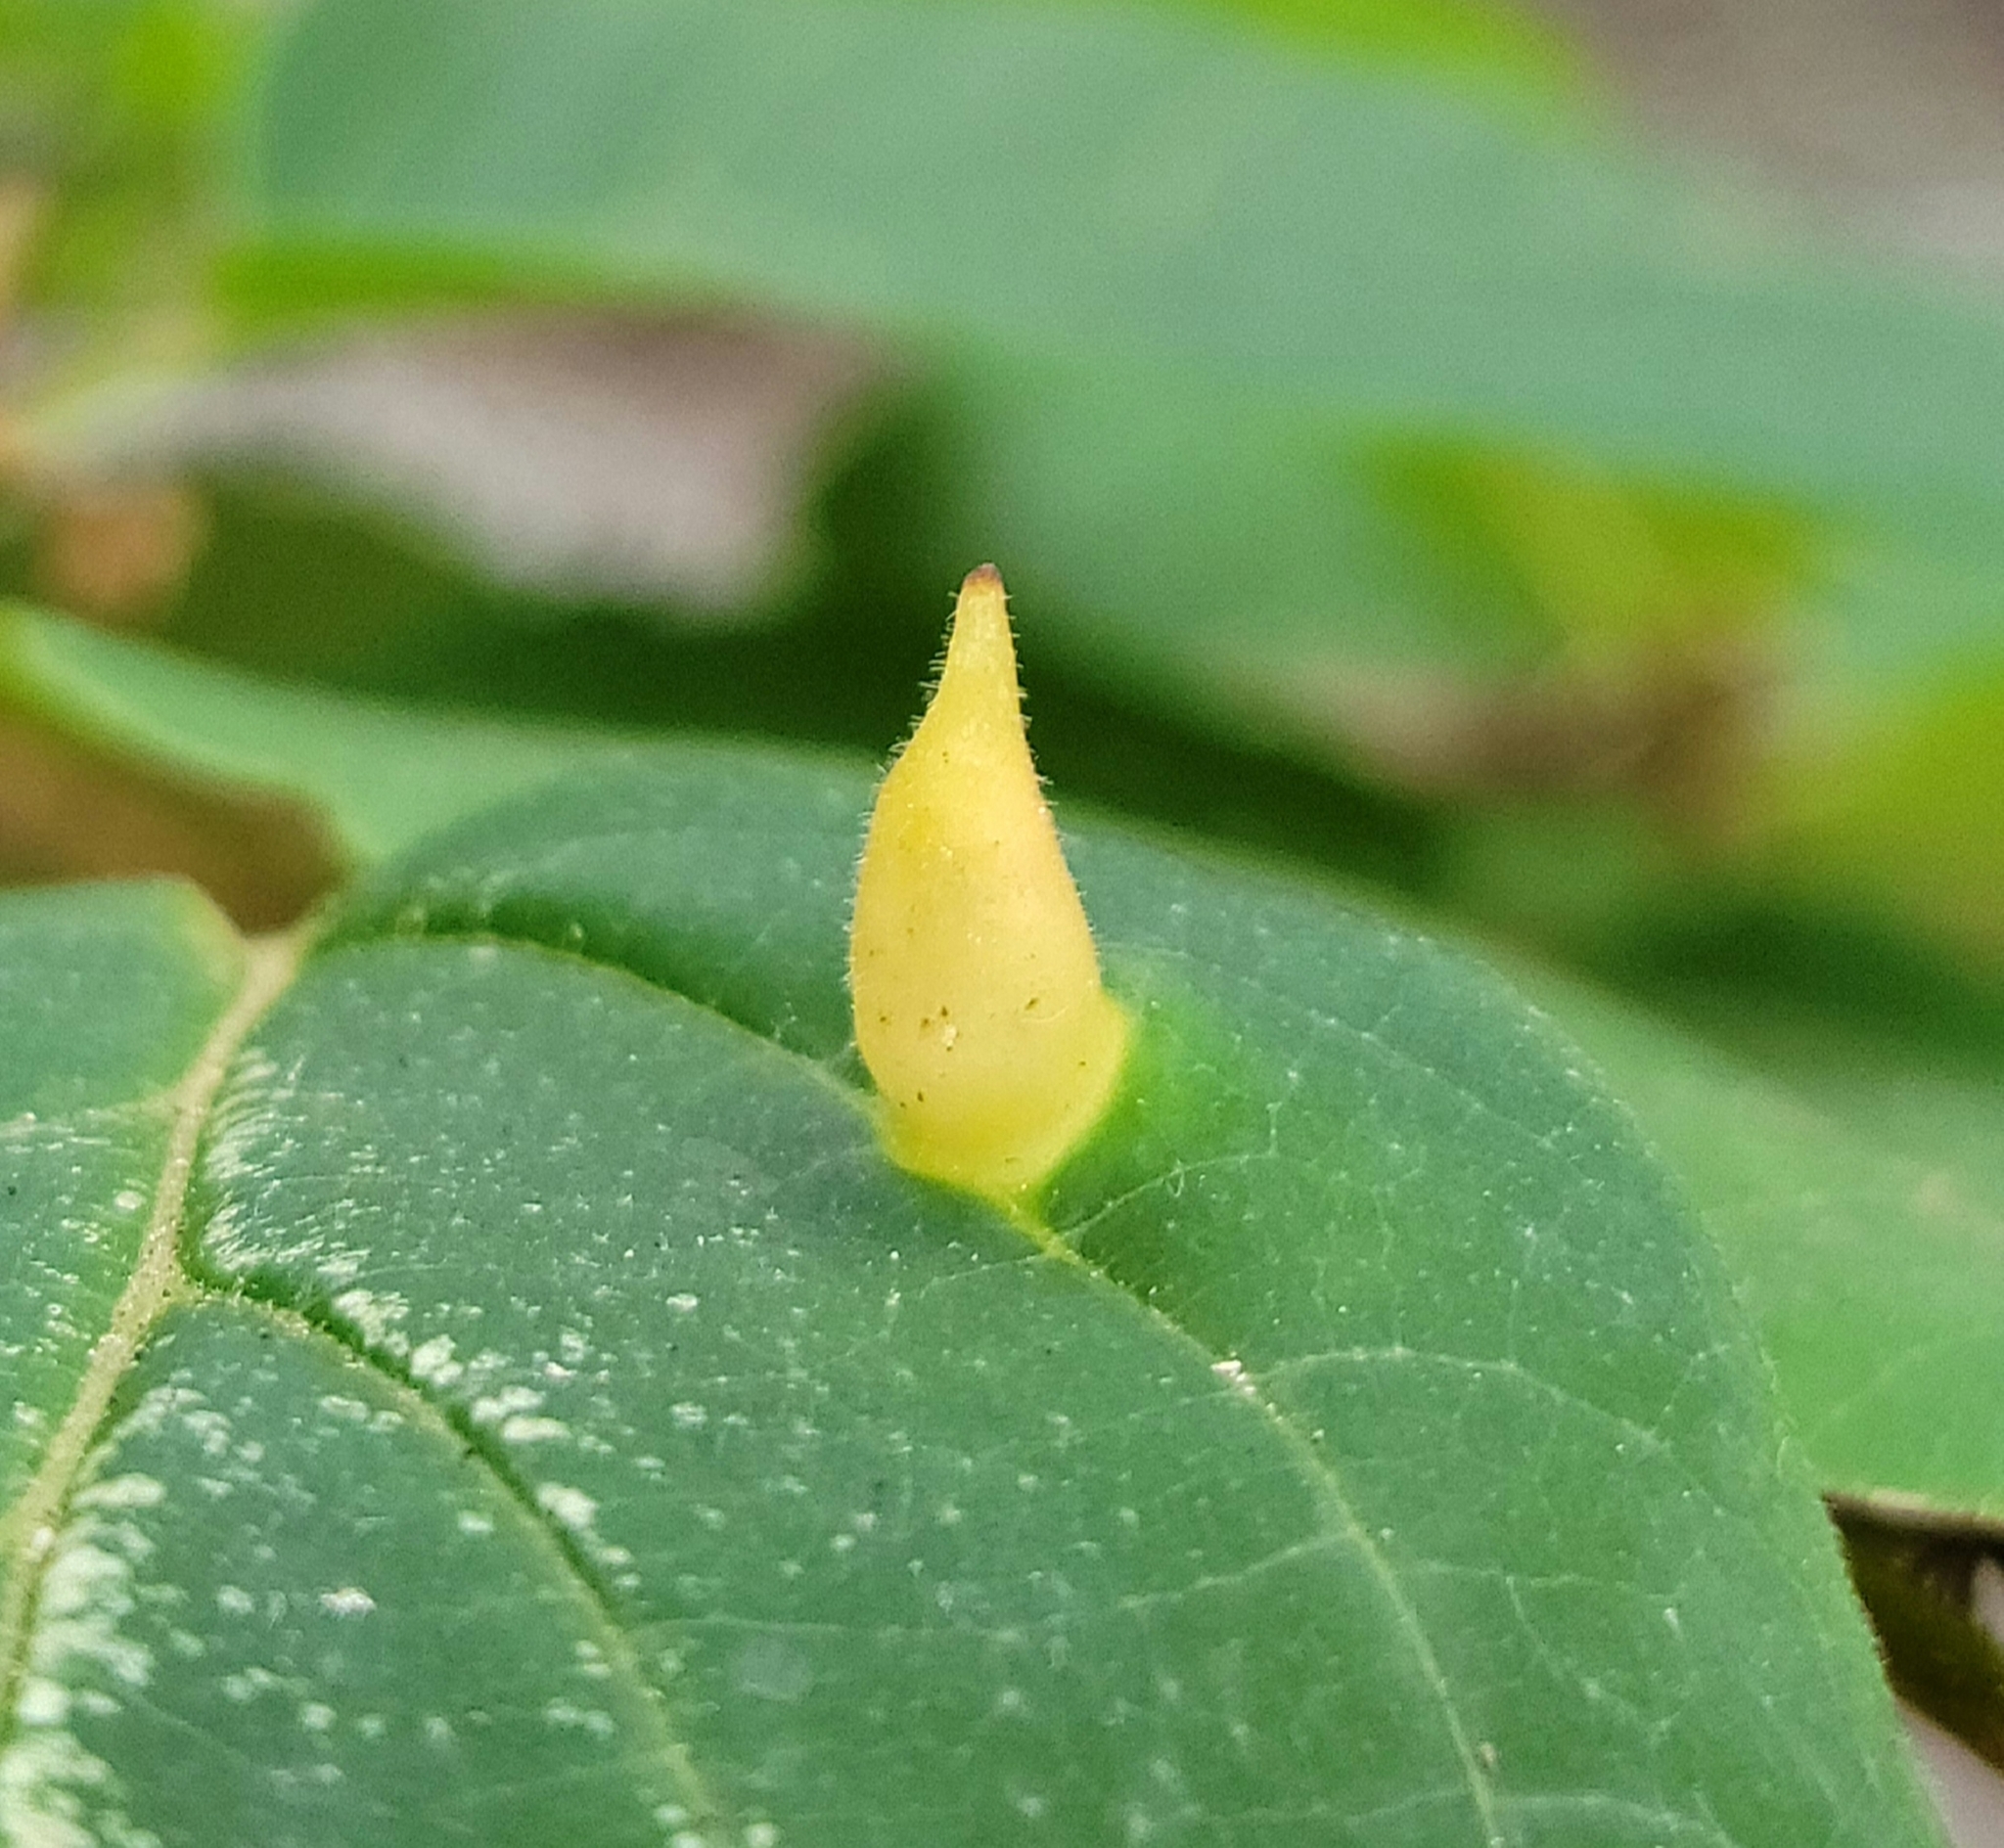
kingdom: Animalia
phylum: Arthropoda
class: Insecta
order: Hemiptera
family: Aphididae
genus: Hormaphis
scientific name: Hormaphis hamamelidis
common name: Witch-hazel cone gall aphid
